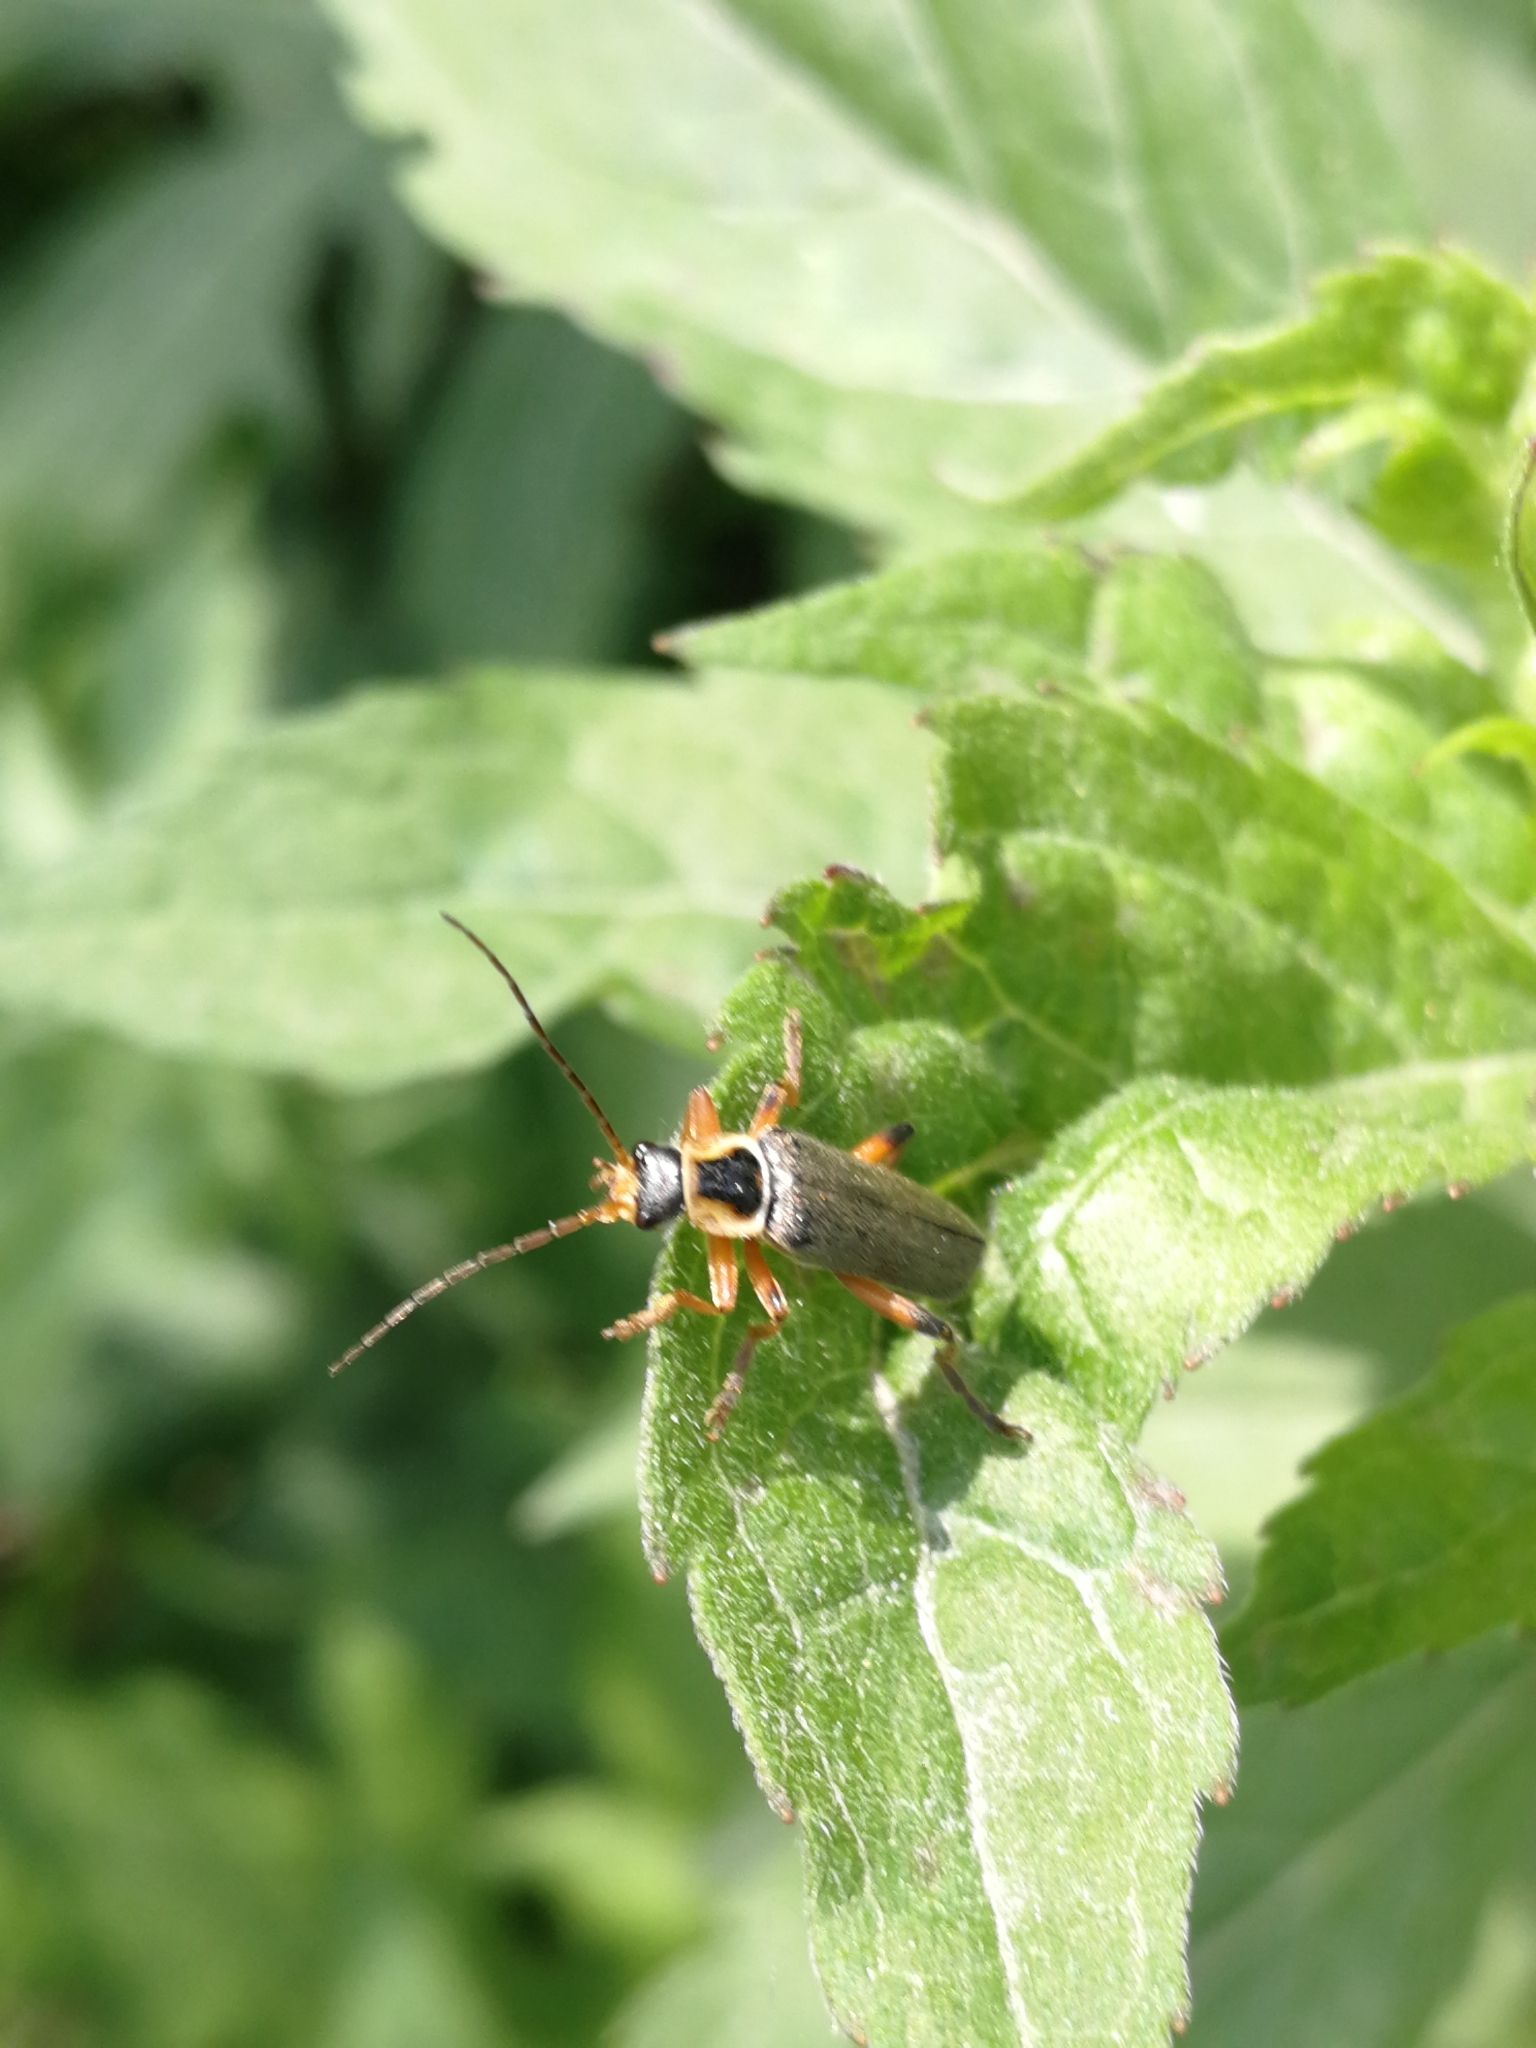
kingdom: Animalia
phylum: Arthropoda
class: Insecta
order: Coleoptera
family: Cantharidae
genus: Cantharis
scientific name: Cantharis nigricans
